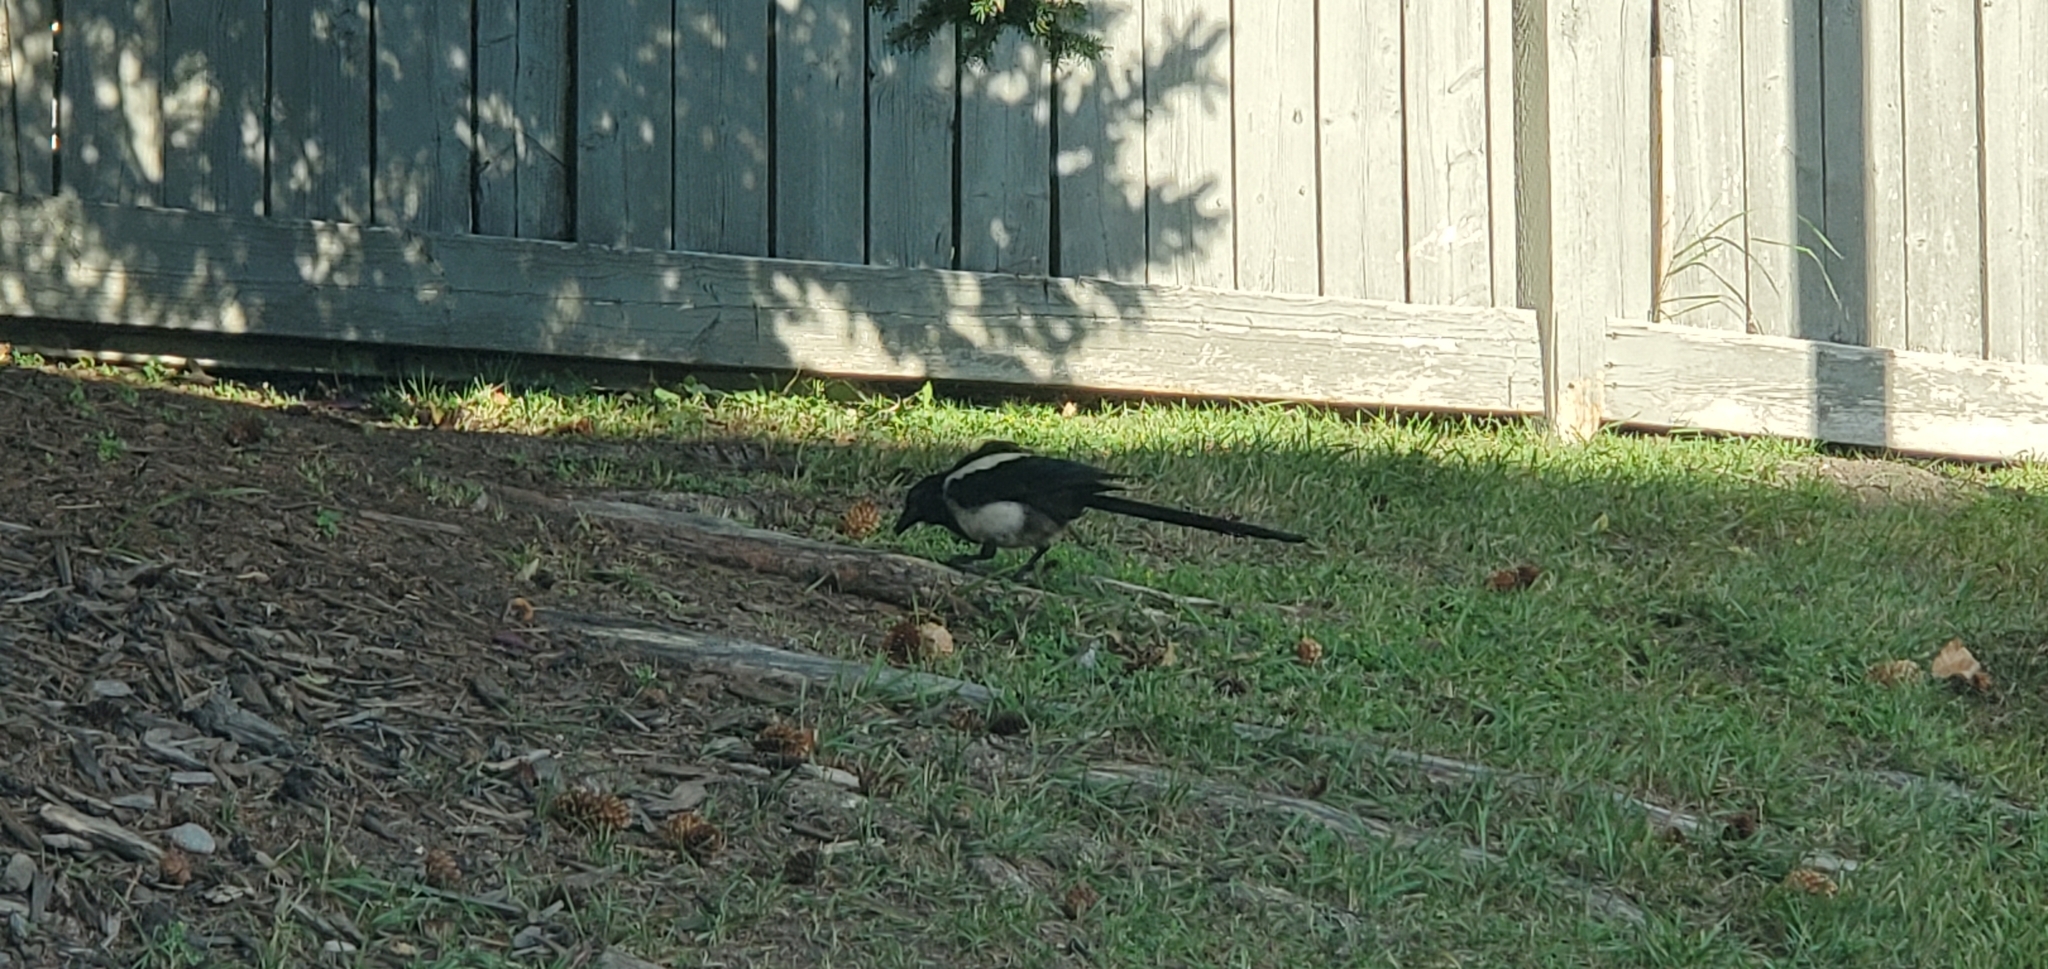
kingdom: Animalia
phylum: Chordata
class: Aves
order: Passeriformes
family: Corvidae
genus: Pica
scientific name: Pica hudsonia
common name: Black-billed magpie
